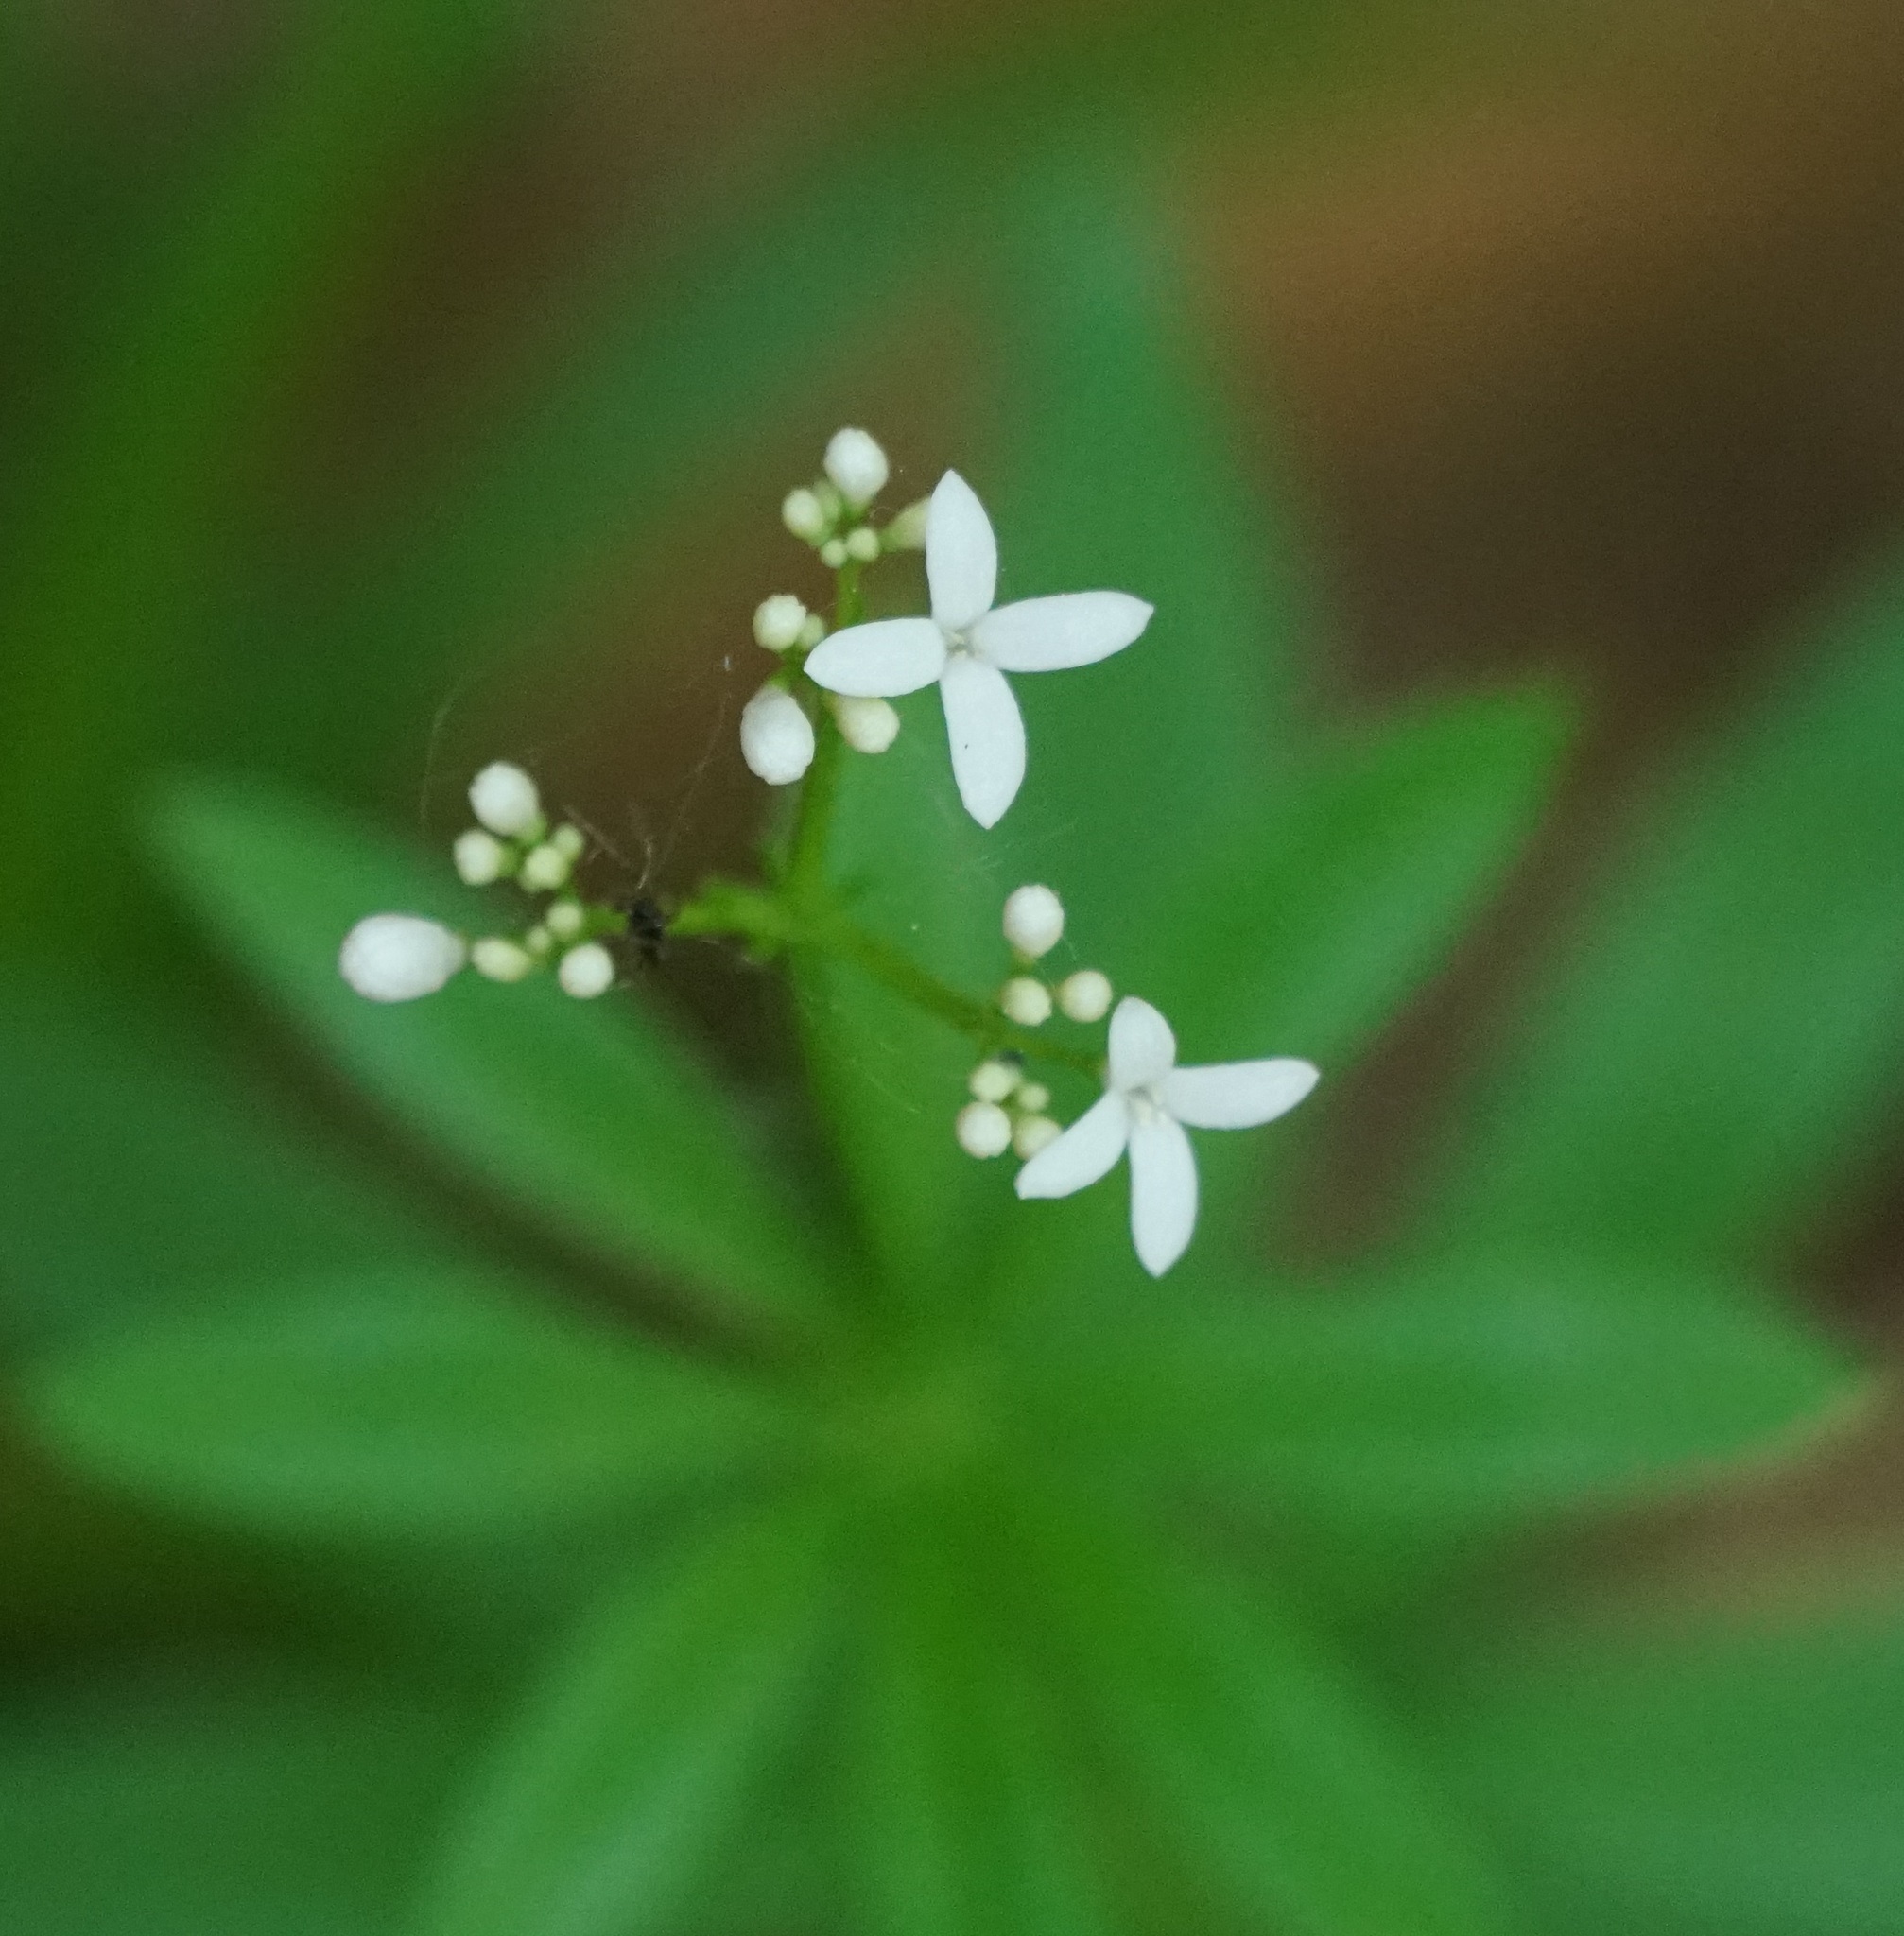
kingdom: Plantae
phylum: Tracheophyta
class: Magnoliopsida
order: Gentianales
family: Rubiaceae
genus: Galium
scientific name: Galium odoratum
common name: Sweet woodruff
